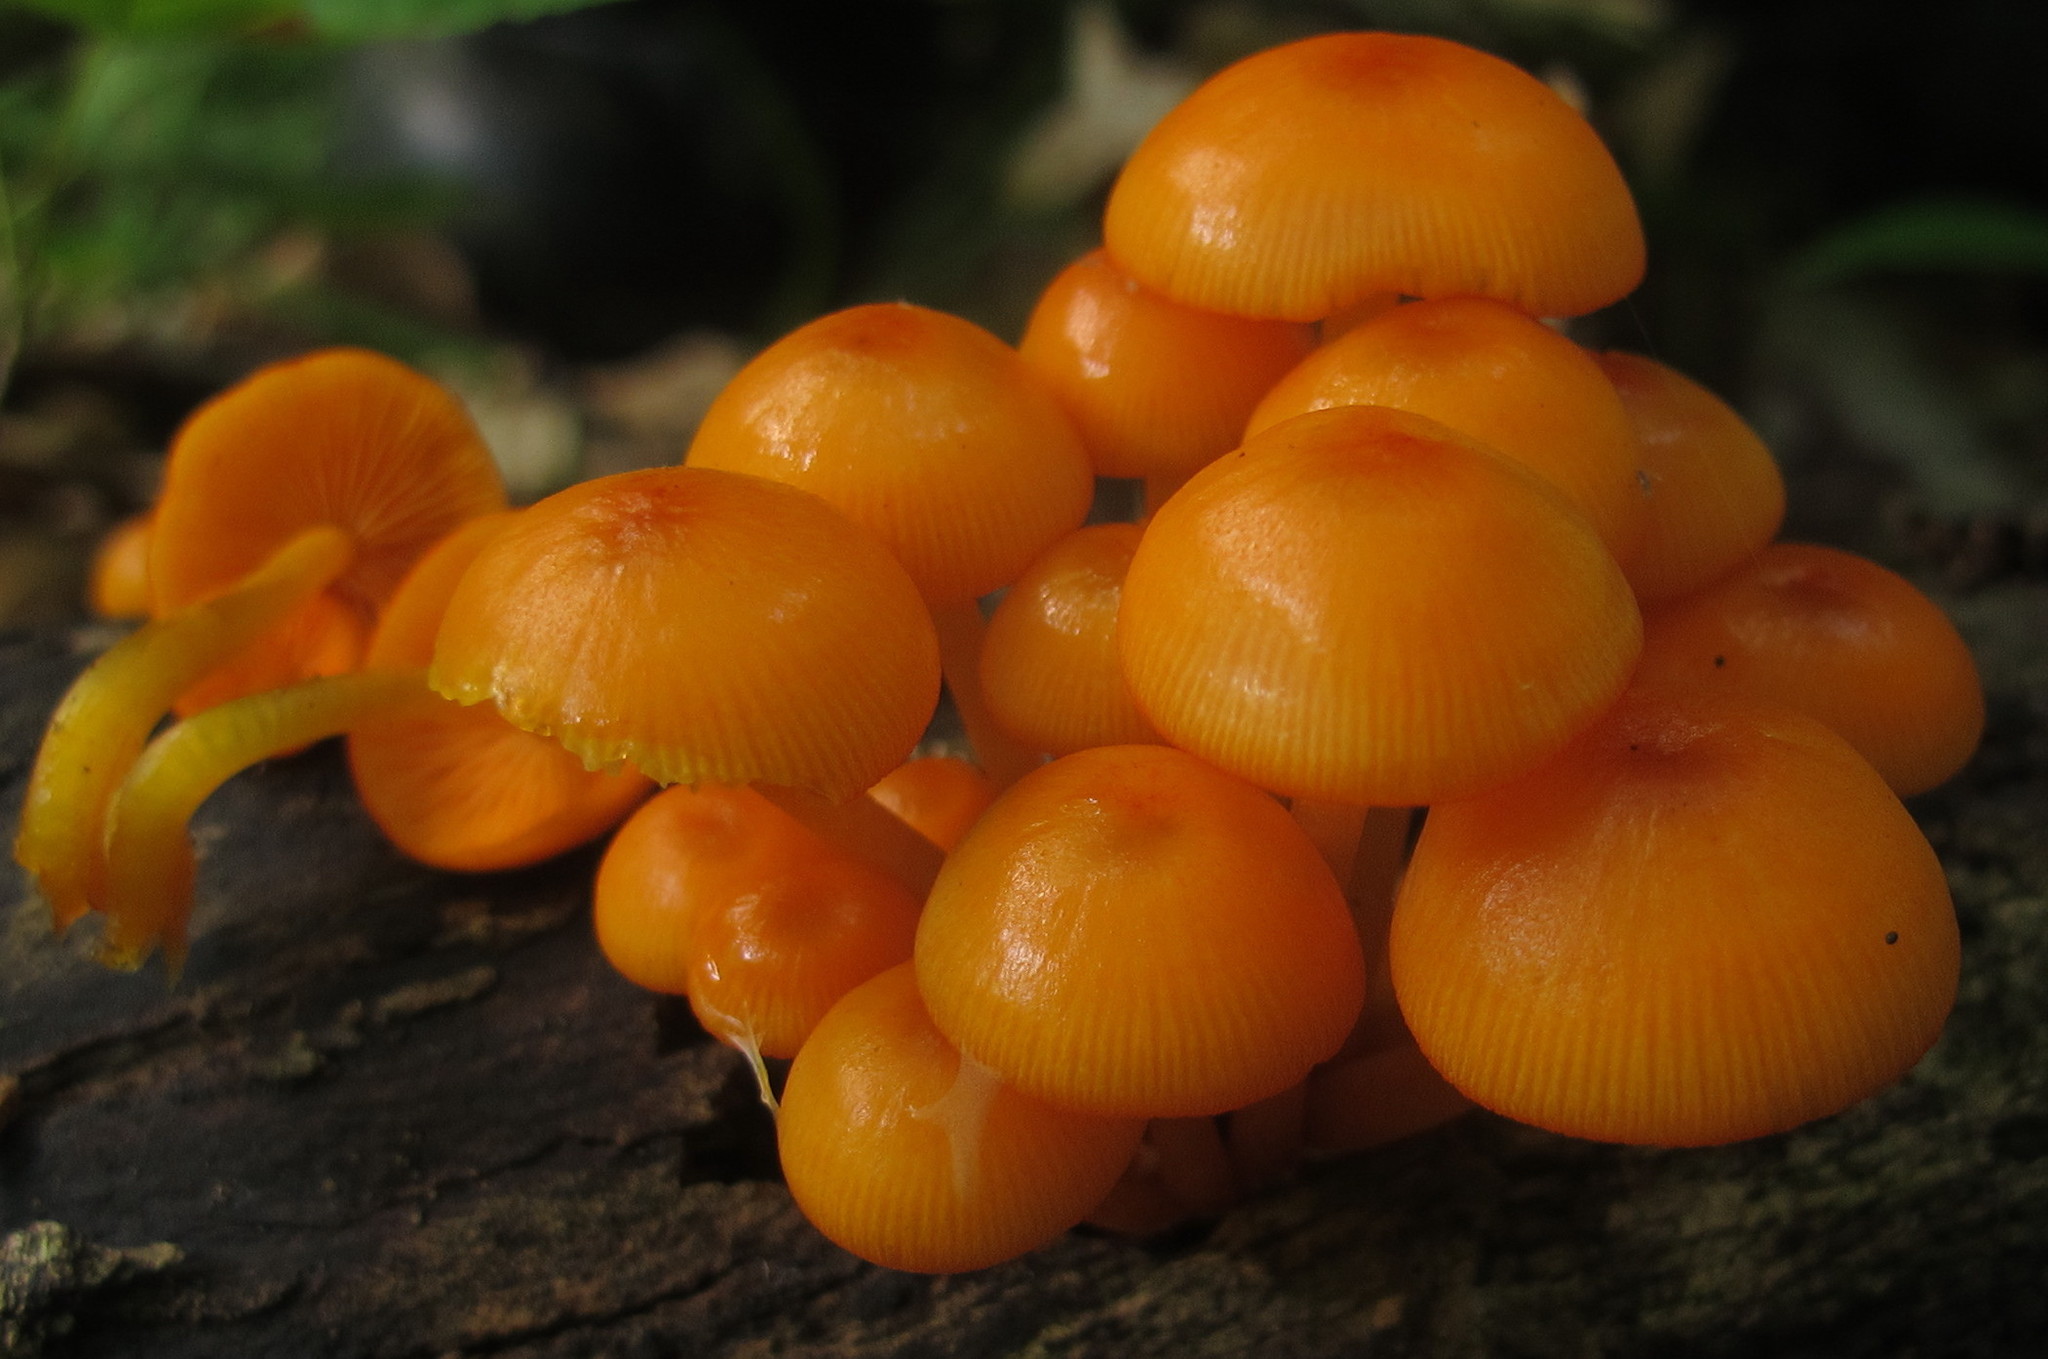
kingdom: Fungi
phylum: Basidiomycota
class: Agaricomycetes
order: Agaricales
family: Mycenaceae
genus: Mycena
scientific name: Mycena leaiana
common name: Orange mycena
